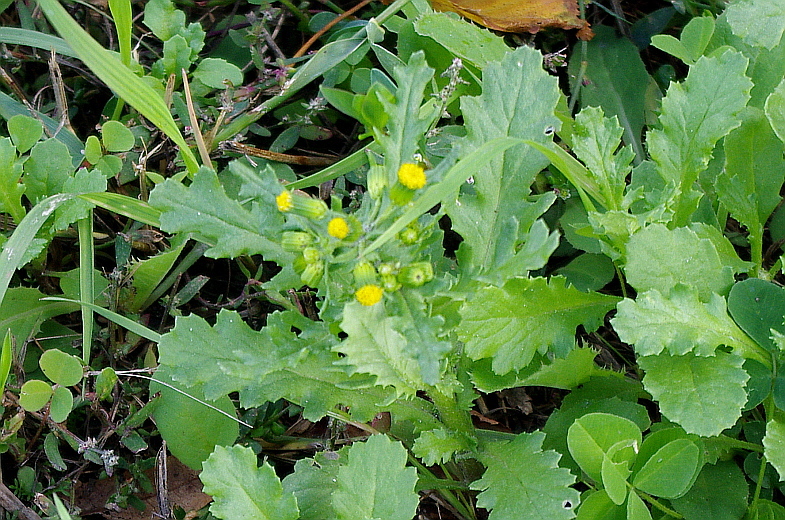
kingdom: Plantae
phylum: Tracheophyta
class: Magnoliopsida
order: Asterales
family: Asteraceae
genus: Senecio
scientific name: Senecio vulgaris
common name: Old-man-in-the-spring
